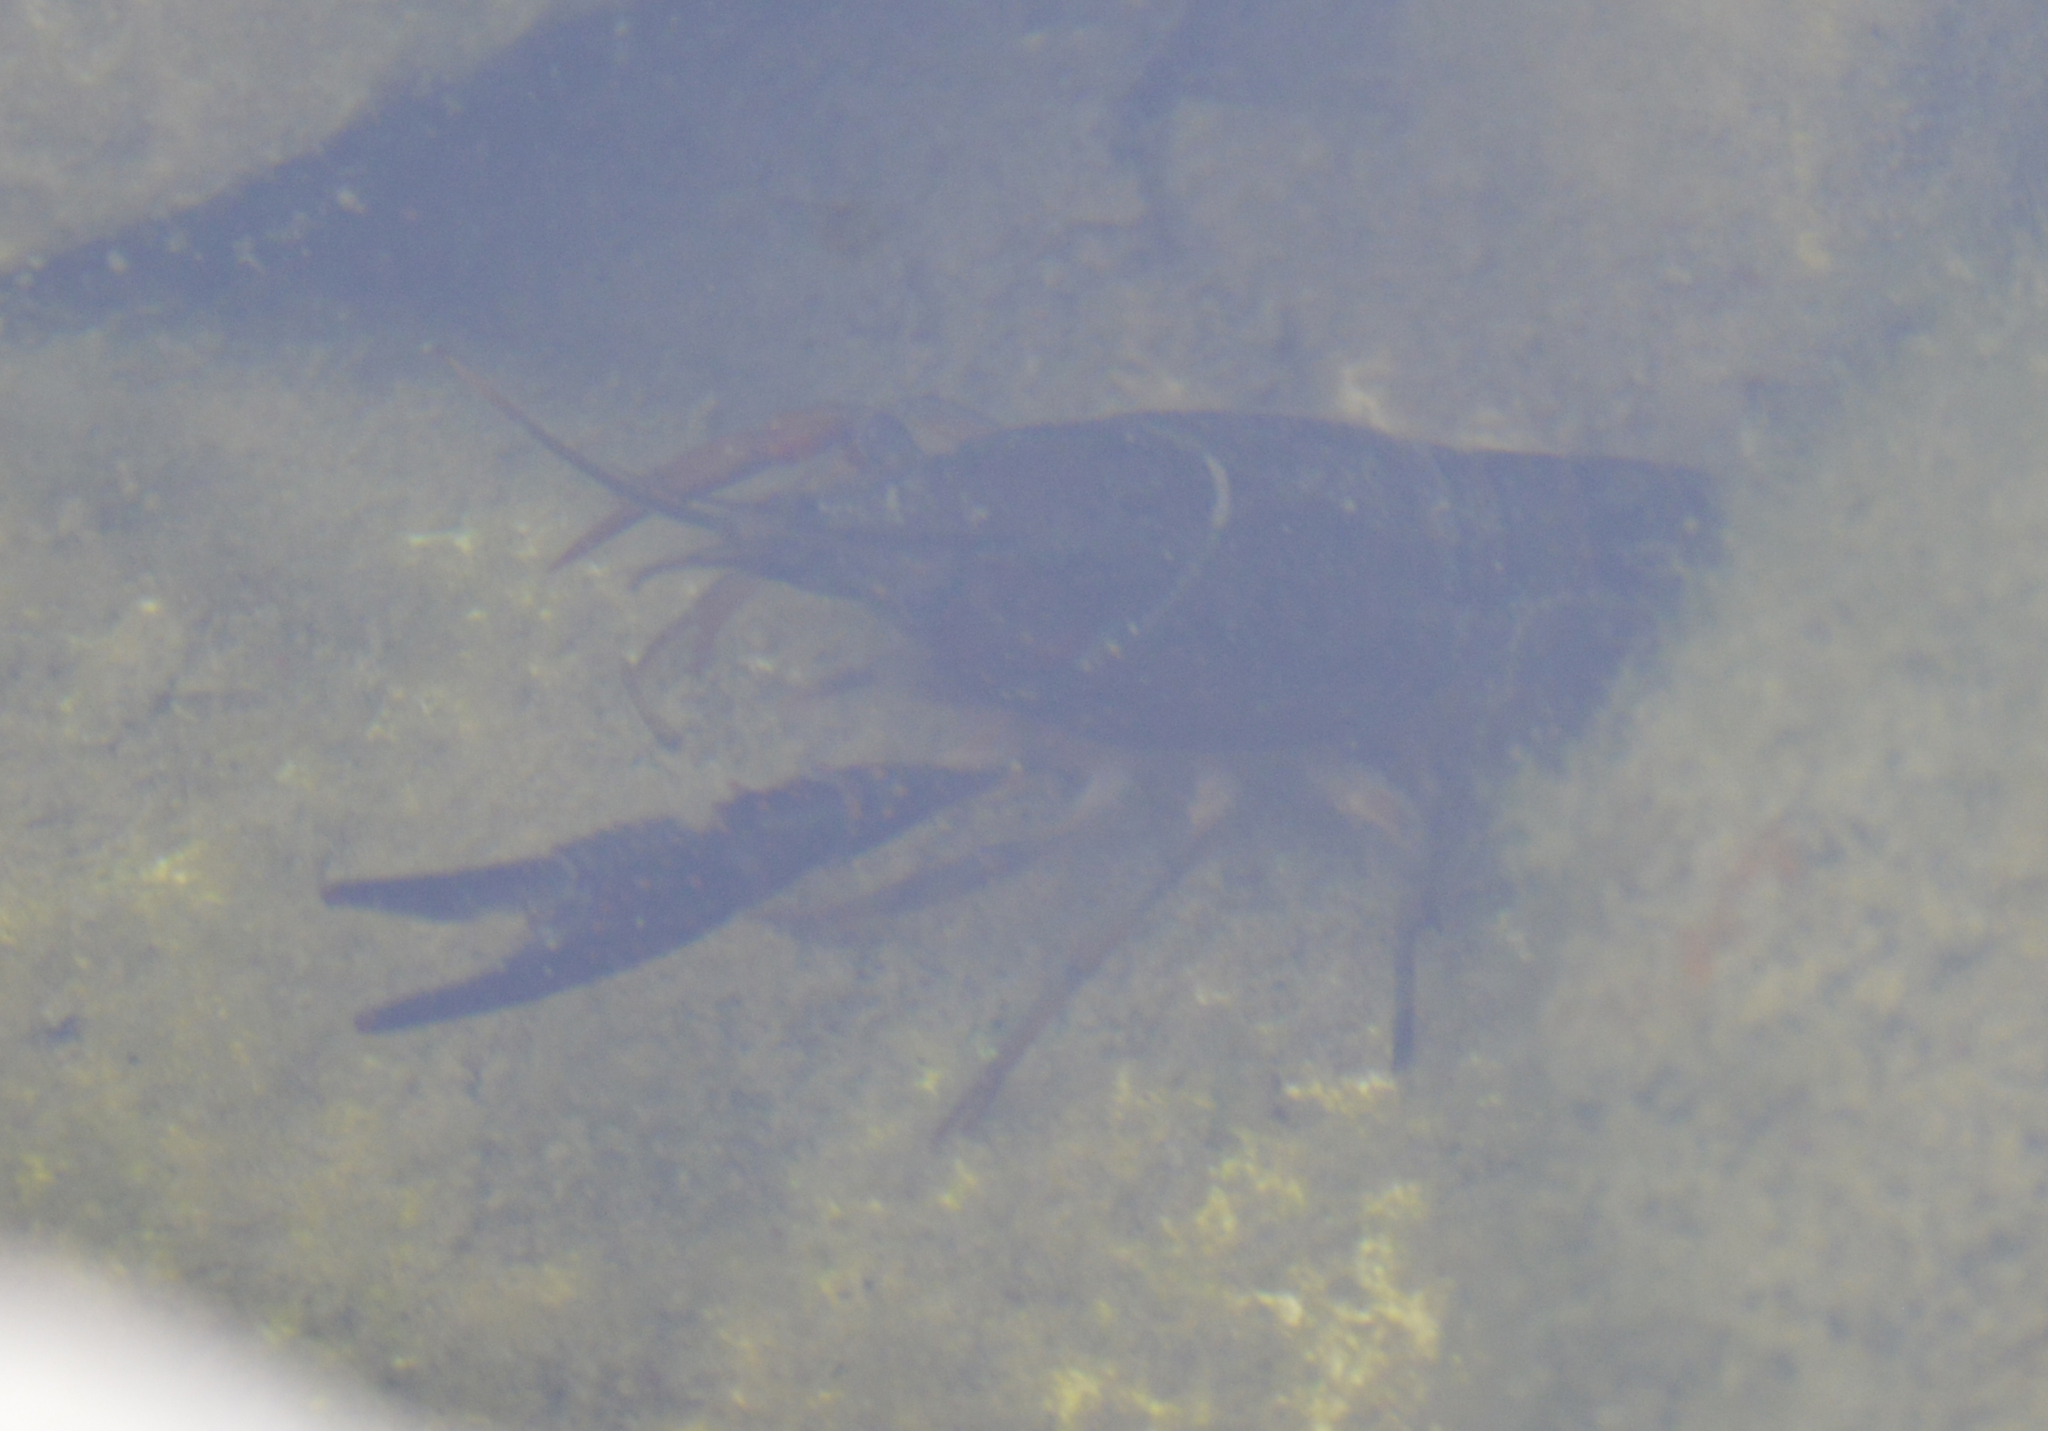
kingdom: Animalia
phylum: Arthropoda
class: Malacostraca
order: Decapoda
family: Cambaridae
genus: Procambarus
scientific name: Procambarus clarkii
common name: Red swamp crayfish
